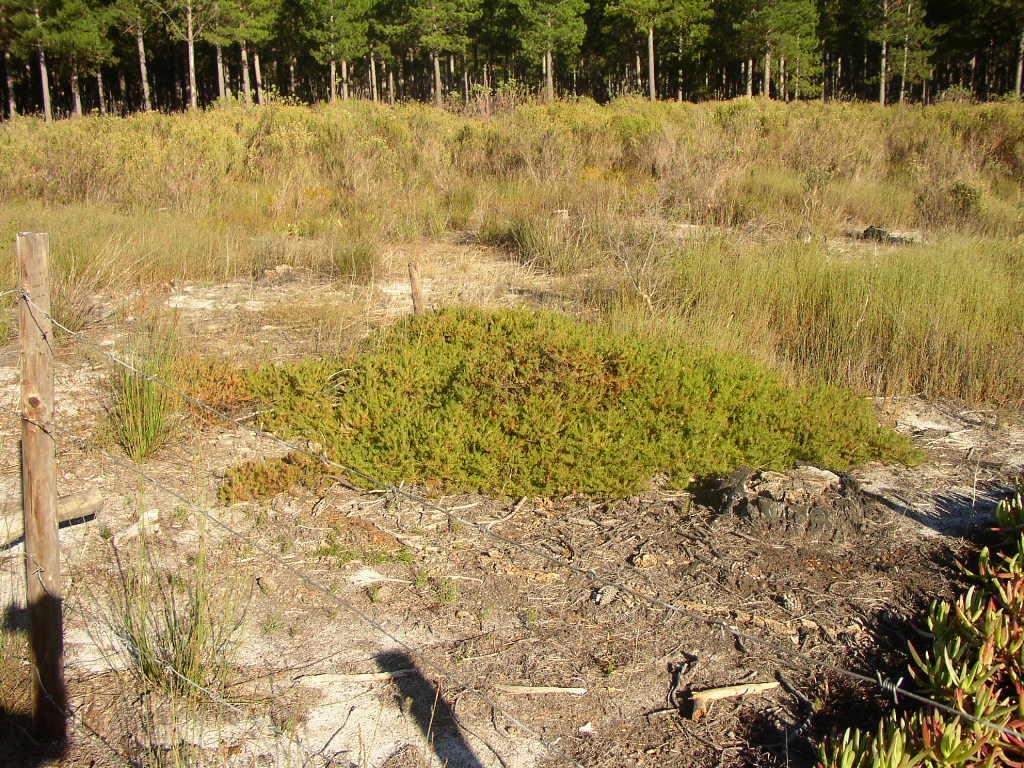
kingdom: Plantae
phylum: Tracheophyta
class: Magnoliopsida
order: Proteales
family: Proteaceae
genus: Diastella
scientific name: Diastella proteoides
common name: Flats silkypuff
